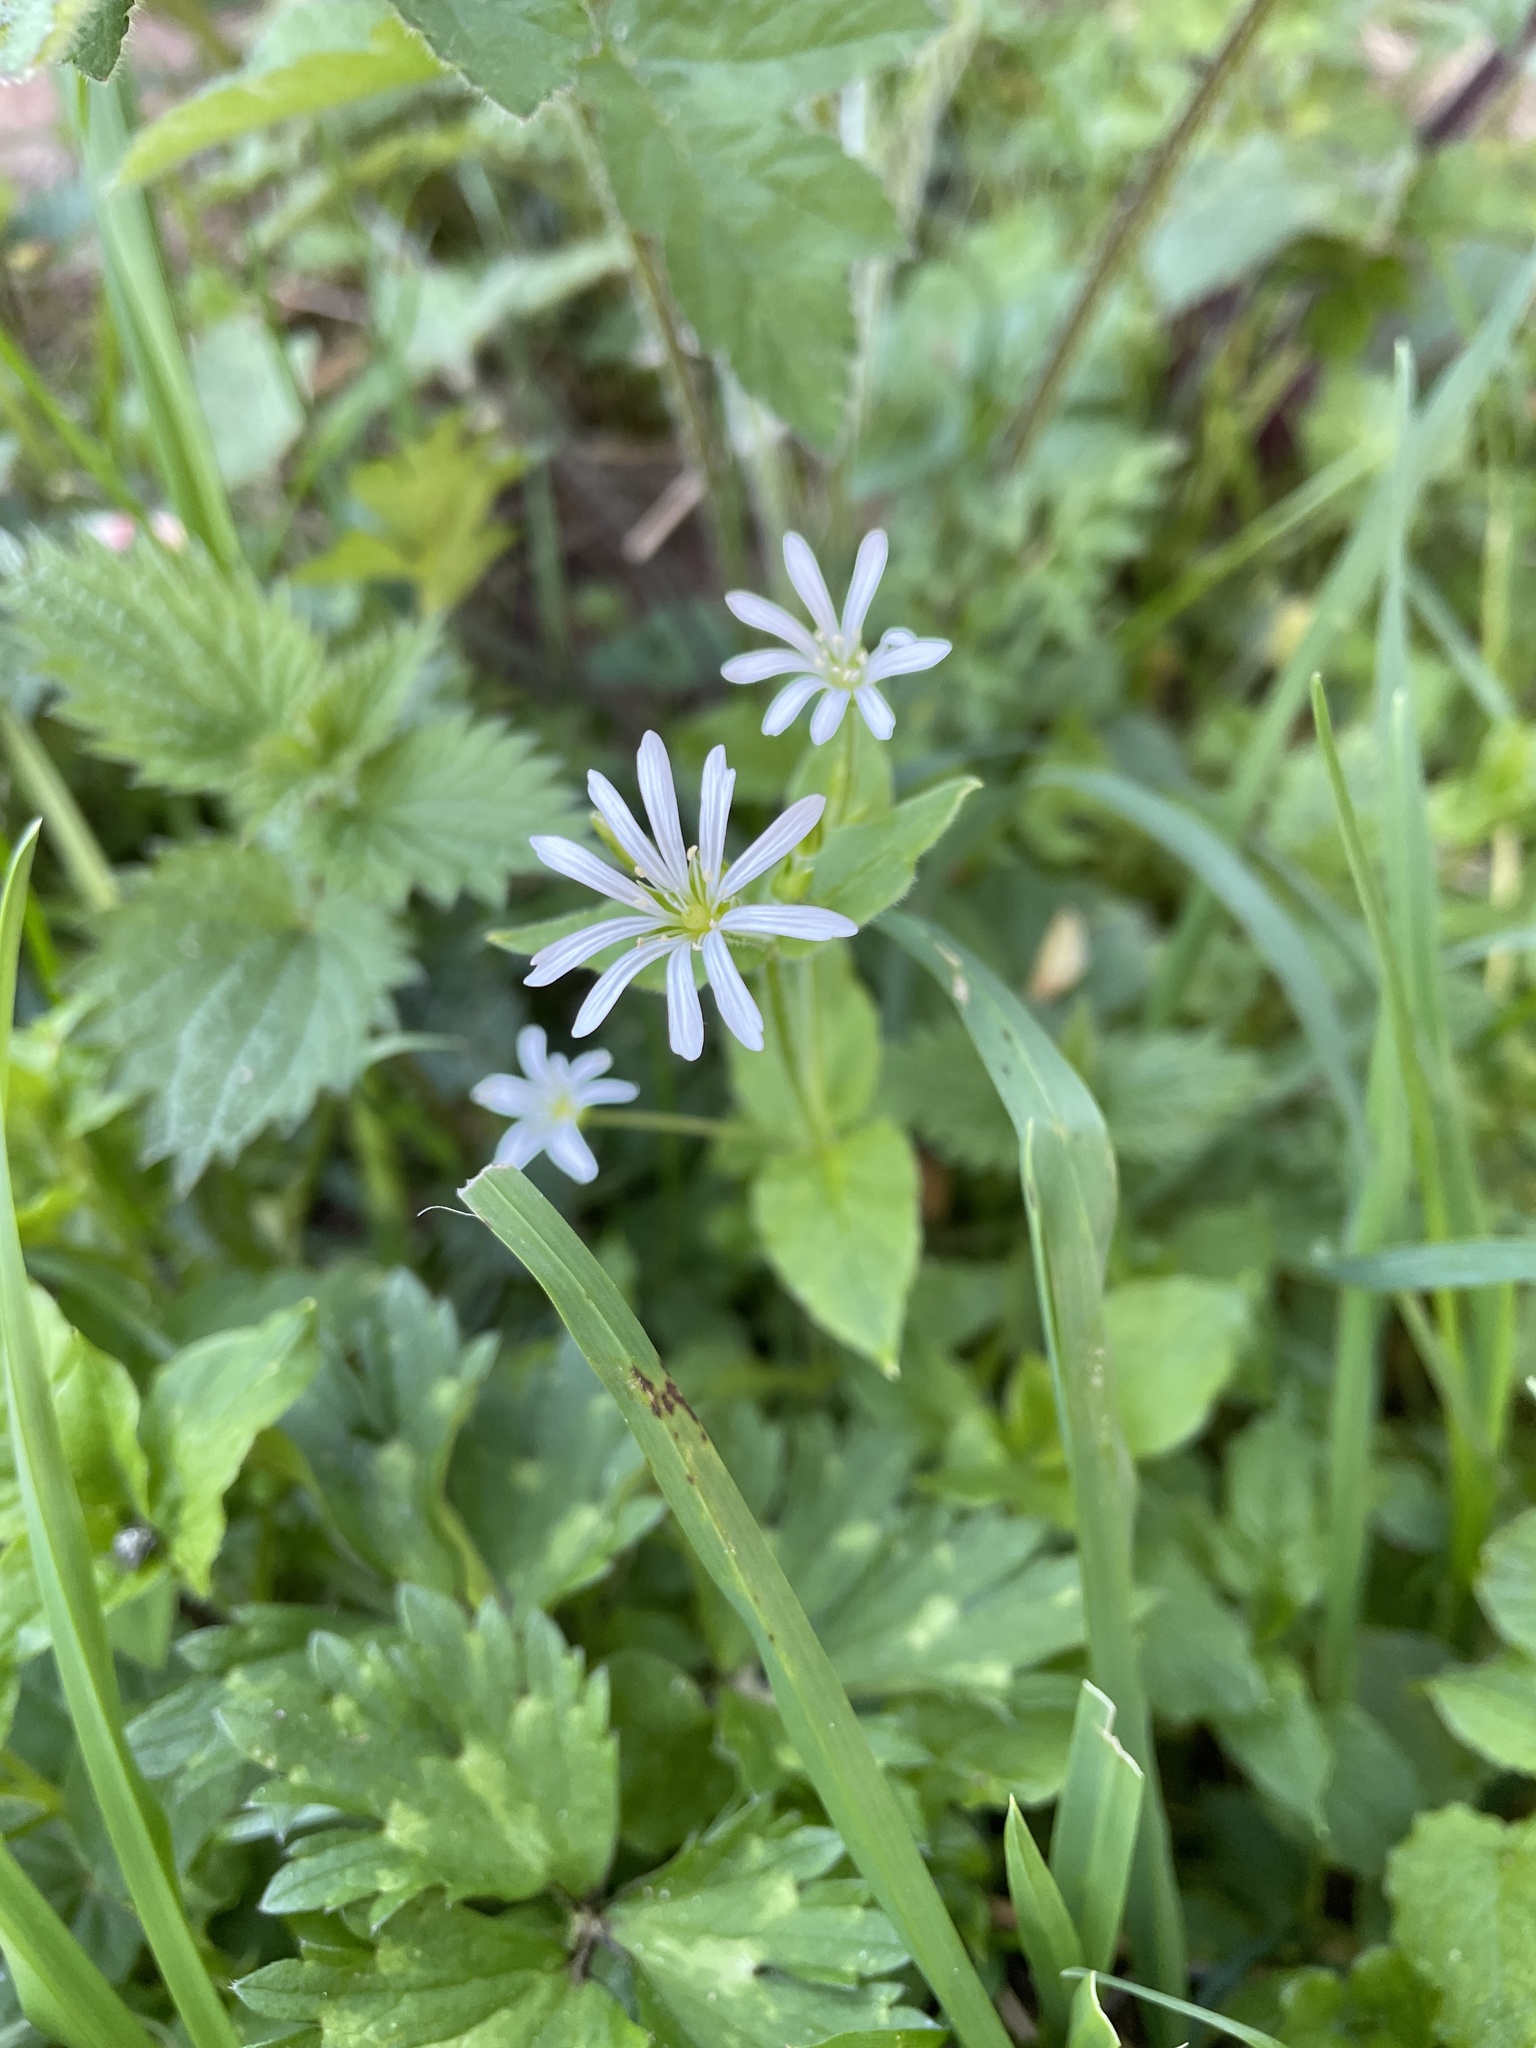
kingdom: Plantae
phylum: Tracheophyta
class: Magnoliopsida
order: Caryophyllales
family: Caryophyllaceae
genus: Stellaria
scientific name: Stellaria nemorum
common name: Wood stitchwort
